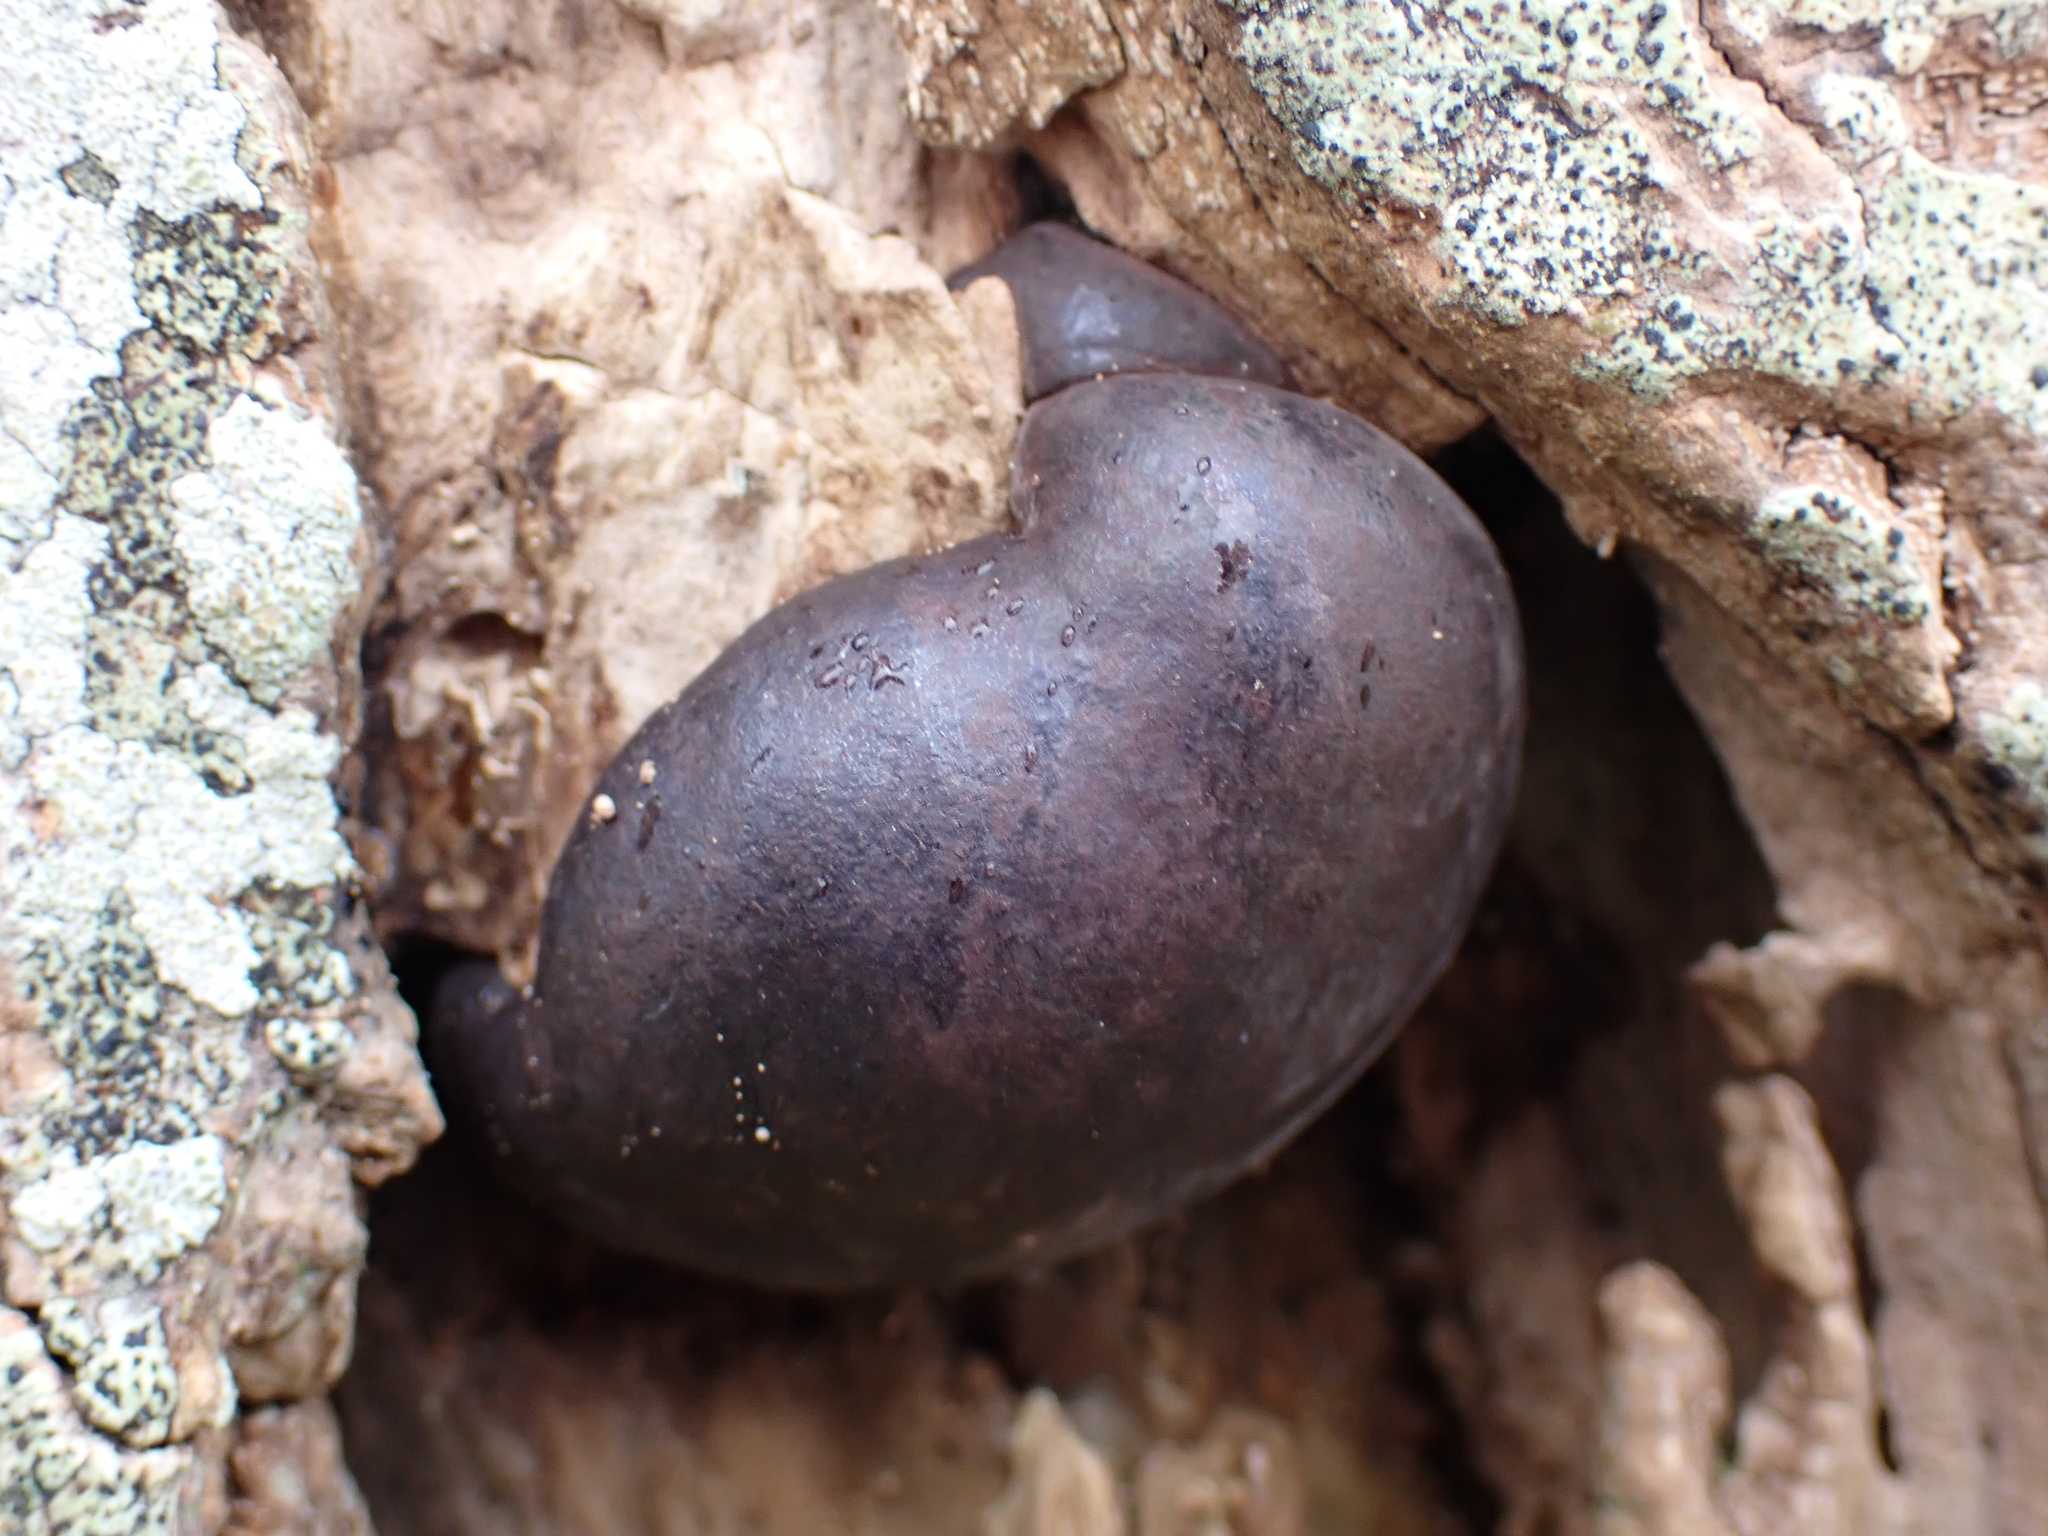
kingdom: Fungi
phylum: Ascomycota
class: Sordariomycetes
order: Xylariales
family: Hypoxylaceae
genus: Daldinia
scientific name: Daldinia concentrica
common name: Cramp balls
